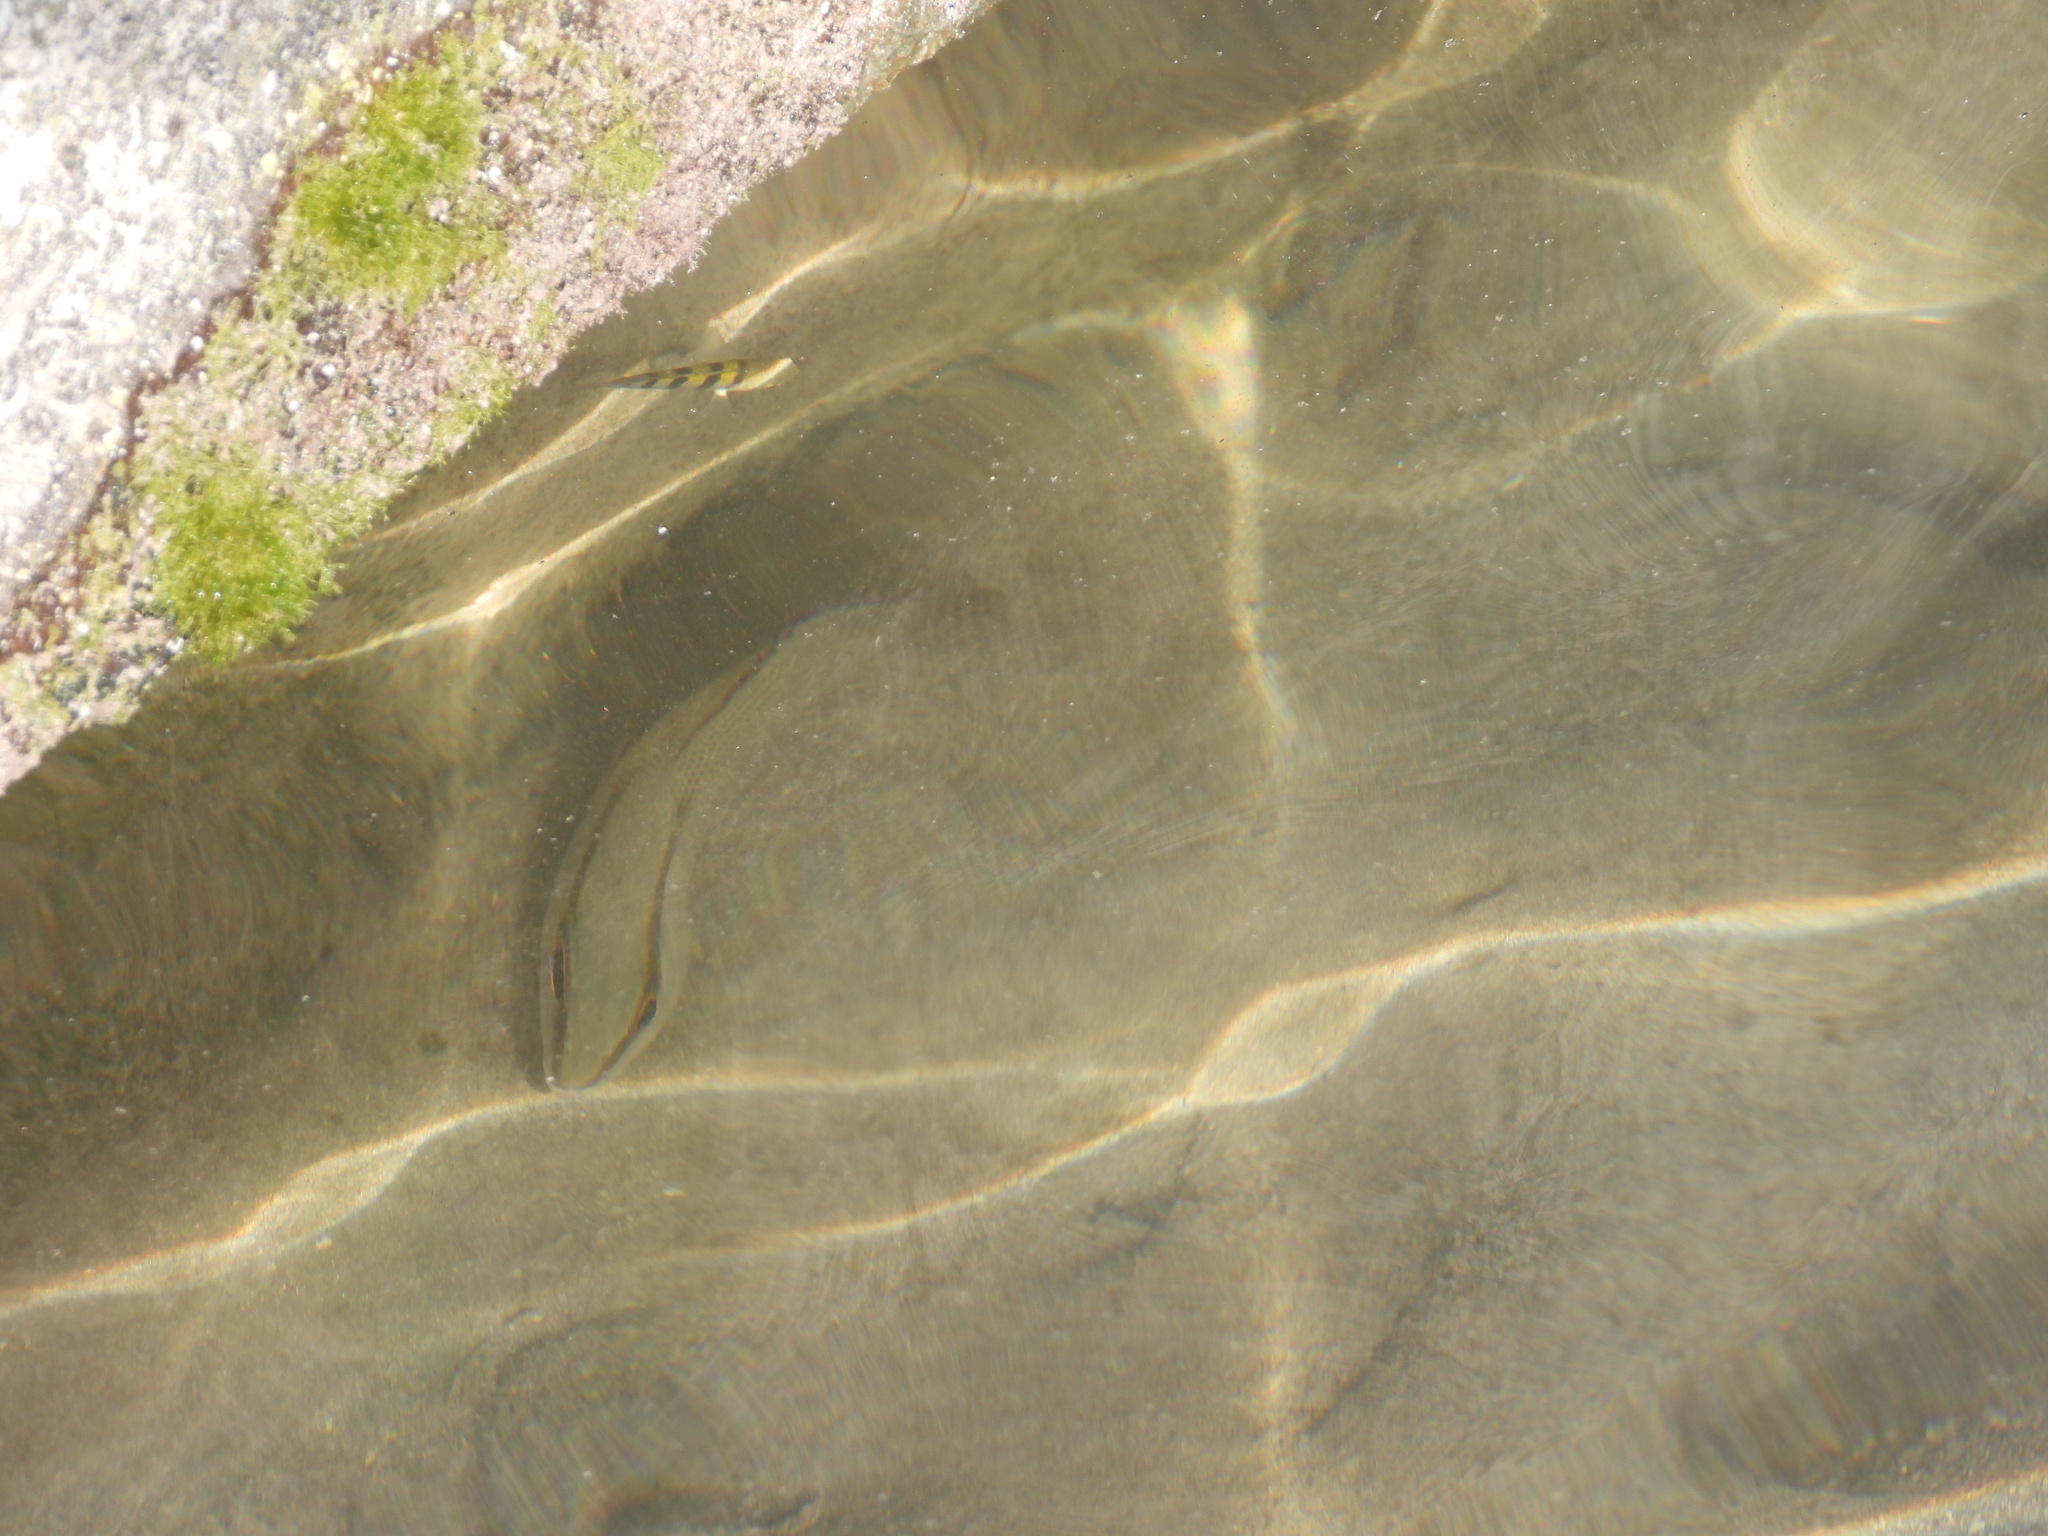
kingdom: Animalia
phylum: Chordata
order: Perciformes
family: Pomacentridae
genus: Abudefduf
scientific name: Abudefduf saxatilis
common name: Sergeant major
